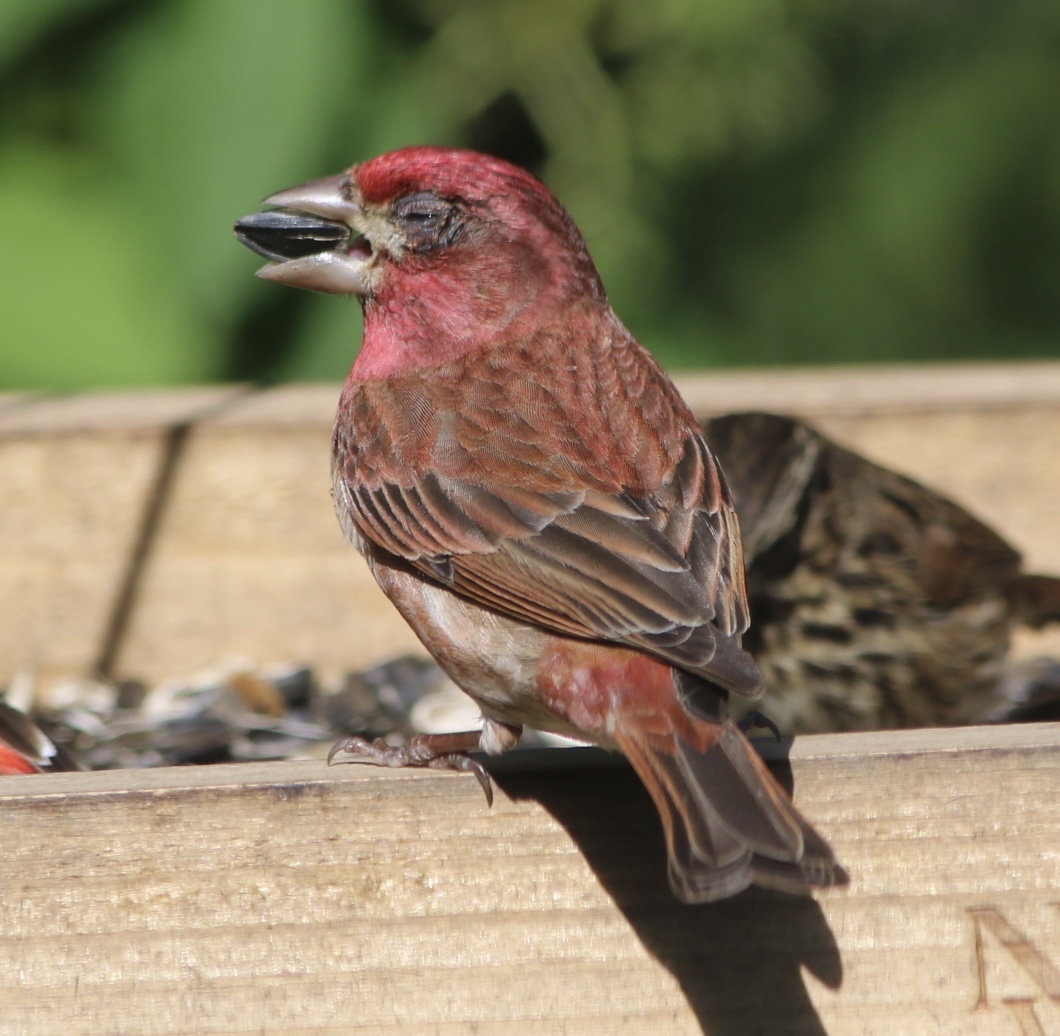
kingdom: Animalia
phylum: Chordata
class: Aves
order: Passeriformes
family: Fringillidae
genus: Haemorhous
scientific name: Haemorhous purpureus
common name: Purple finch
